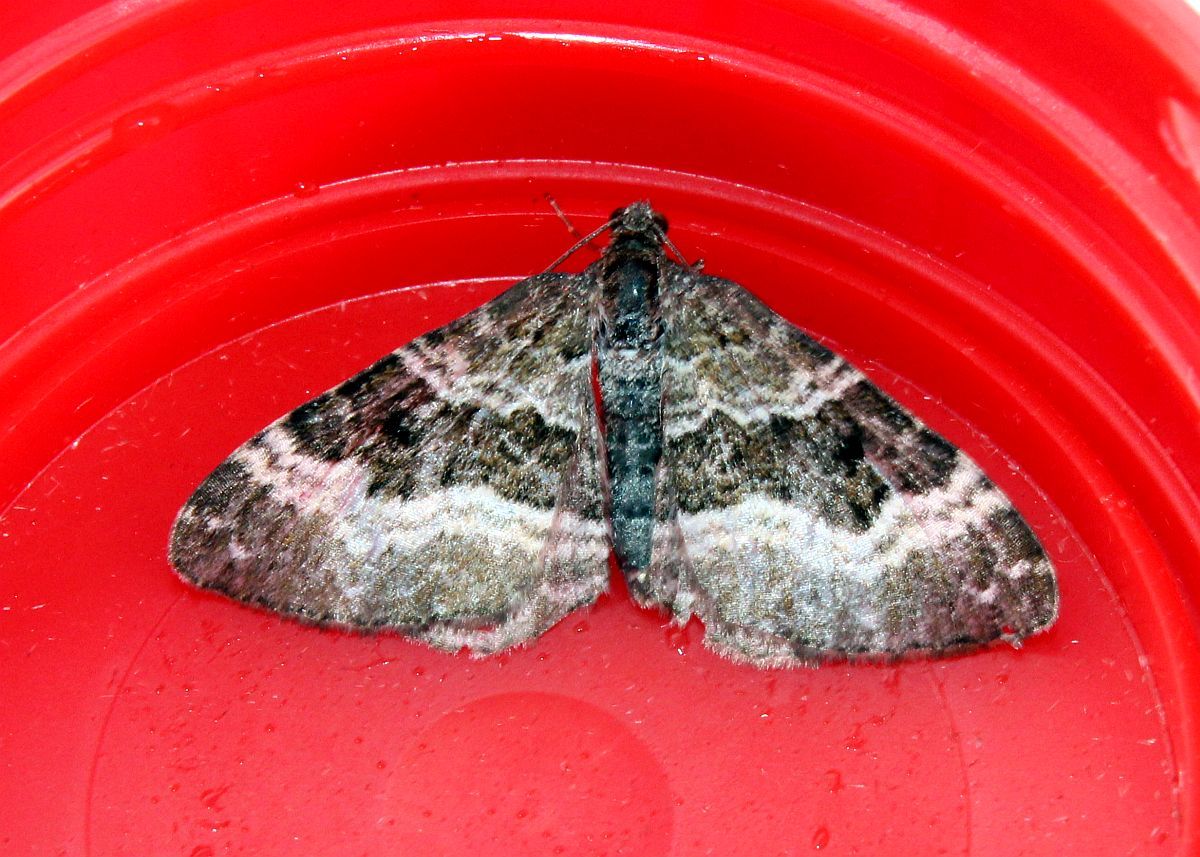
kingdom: Animalia
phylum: Arthropoda
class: Insecta
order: Lepidoptera
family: Geometridae
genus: Epirrhoe
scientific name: Epirrhoe alternata
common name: Common carpet
